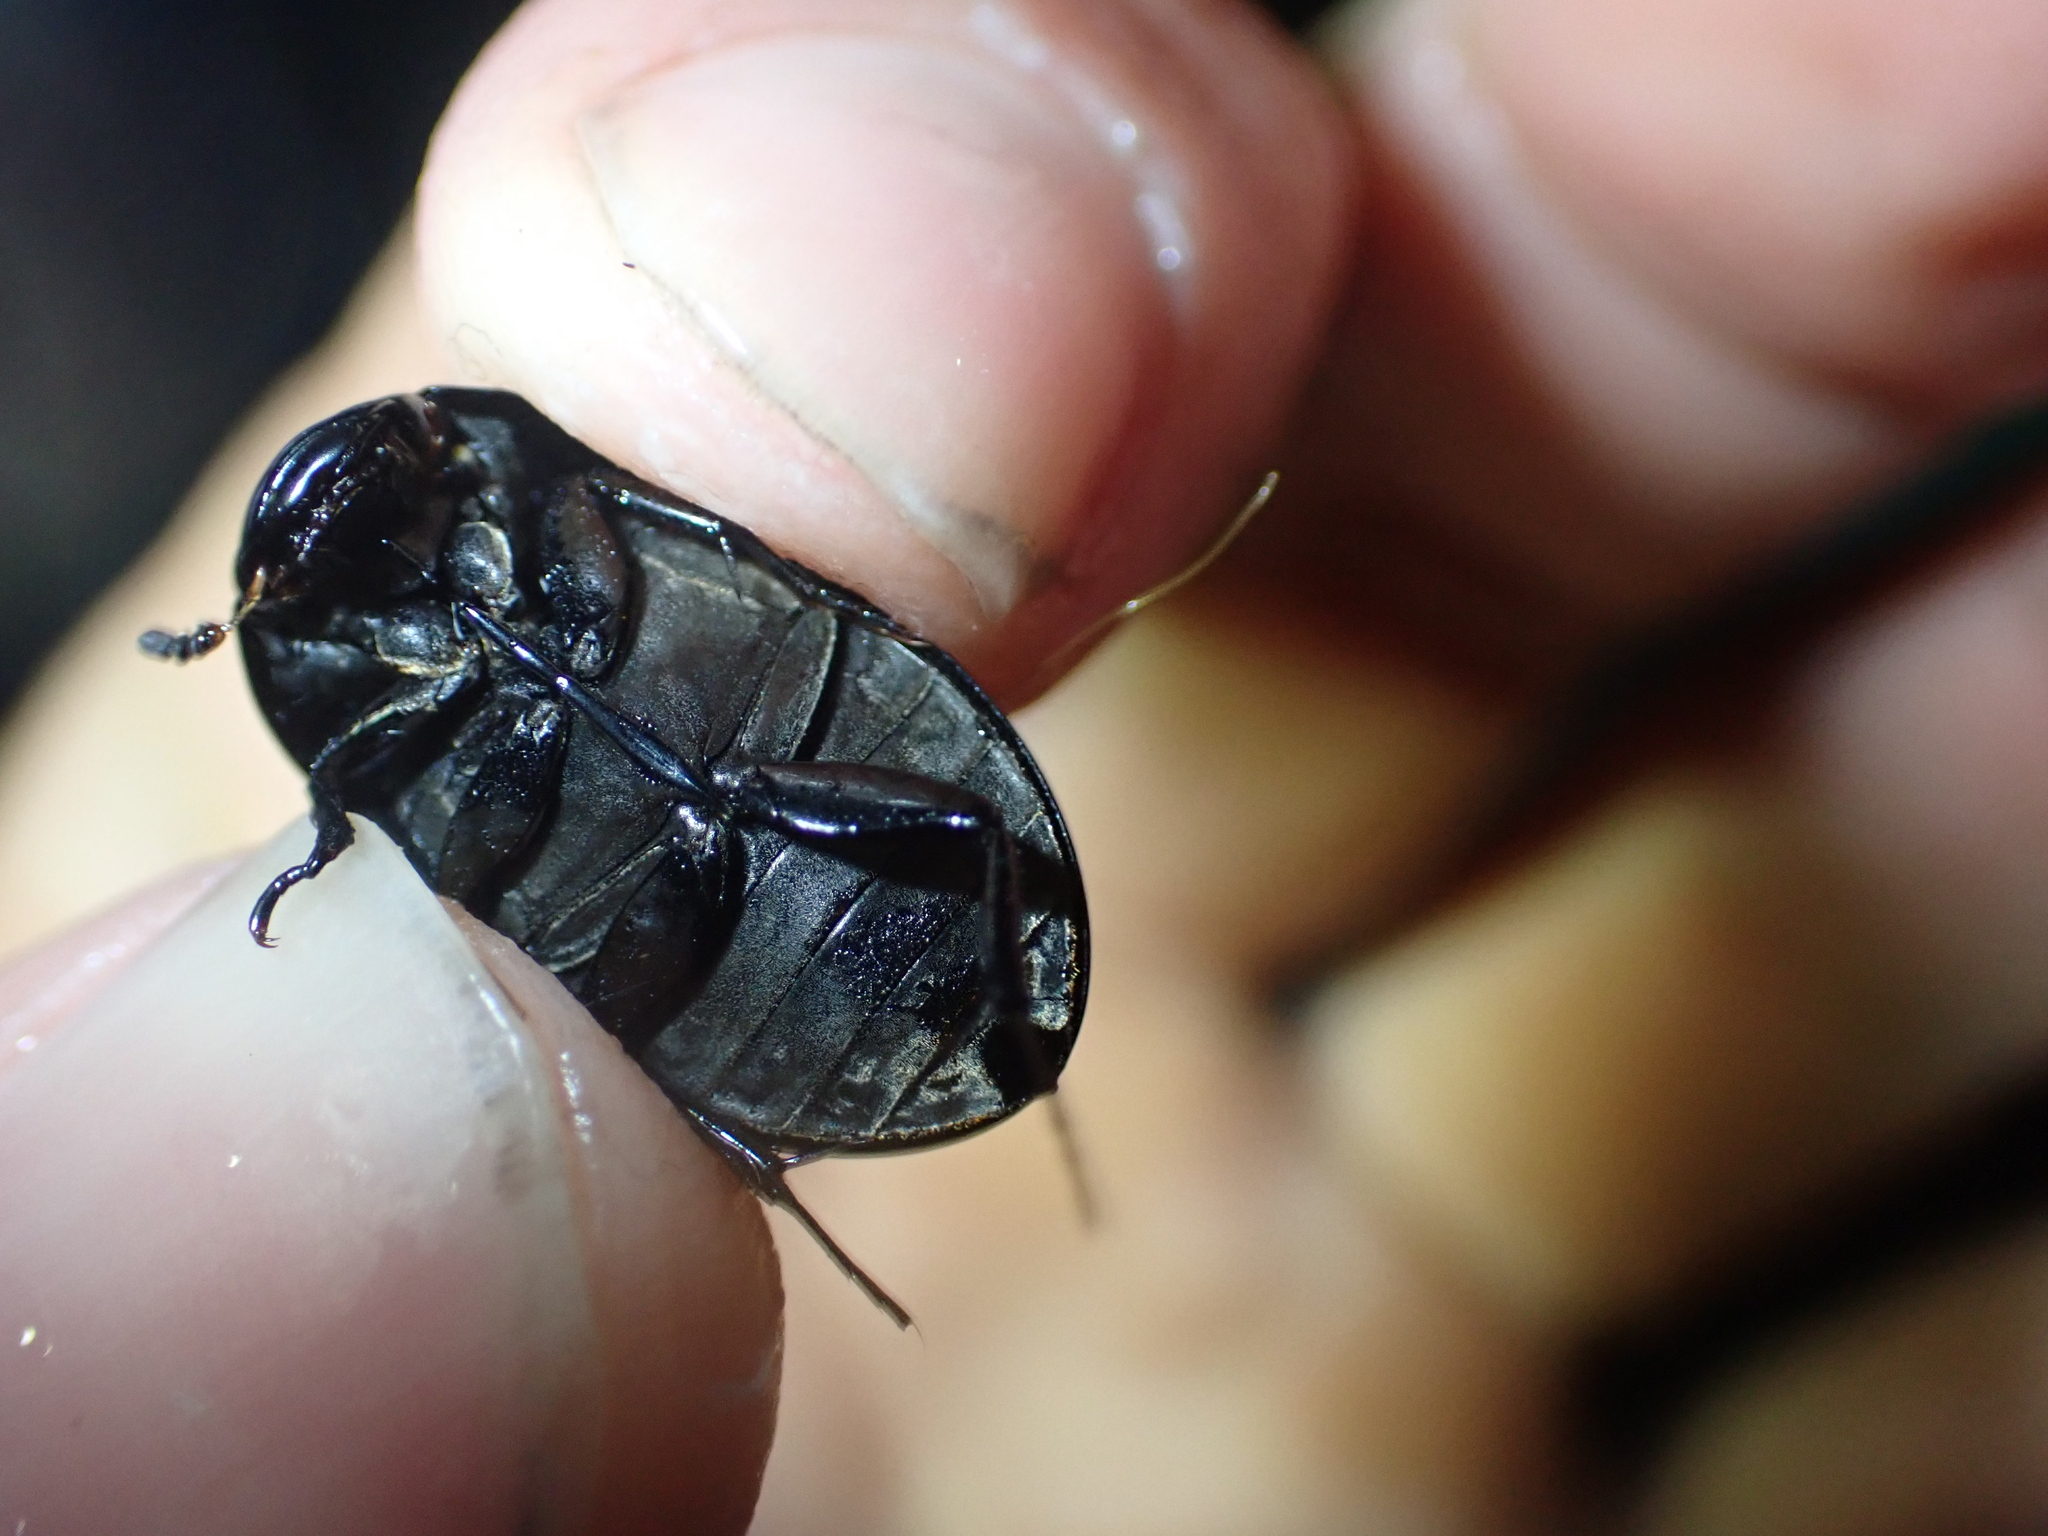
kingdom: Animalia
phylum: Arthropoda
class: Insecta
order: Coleoptera
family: Hydrophilidae
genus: Hydrochara
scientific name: Hydrochara caraboides
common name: Lesser silver water beetle
